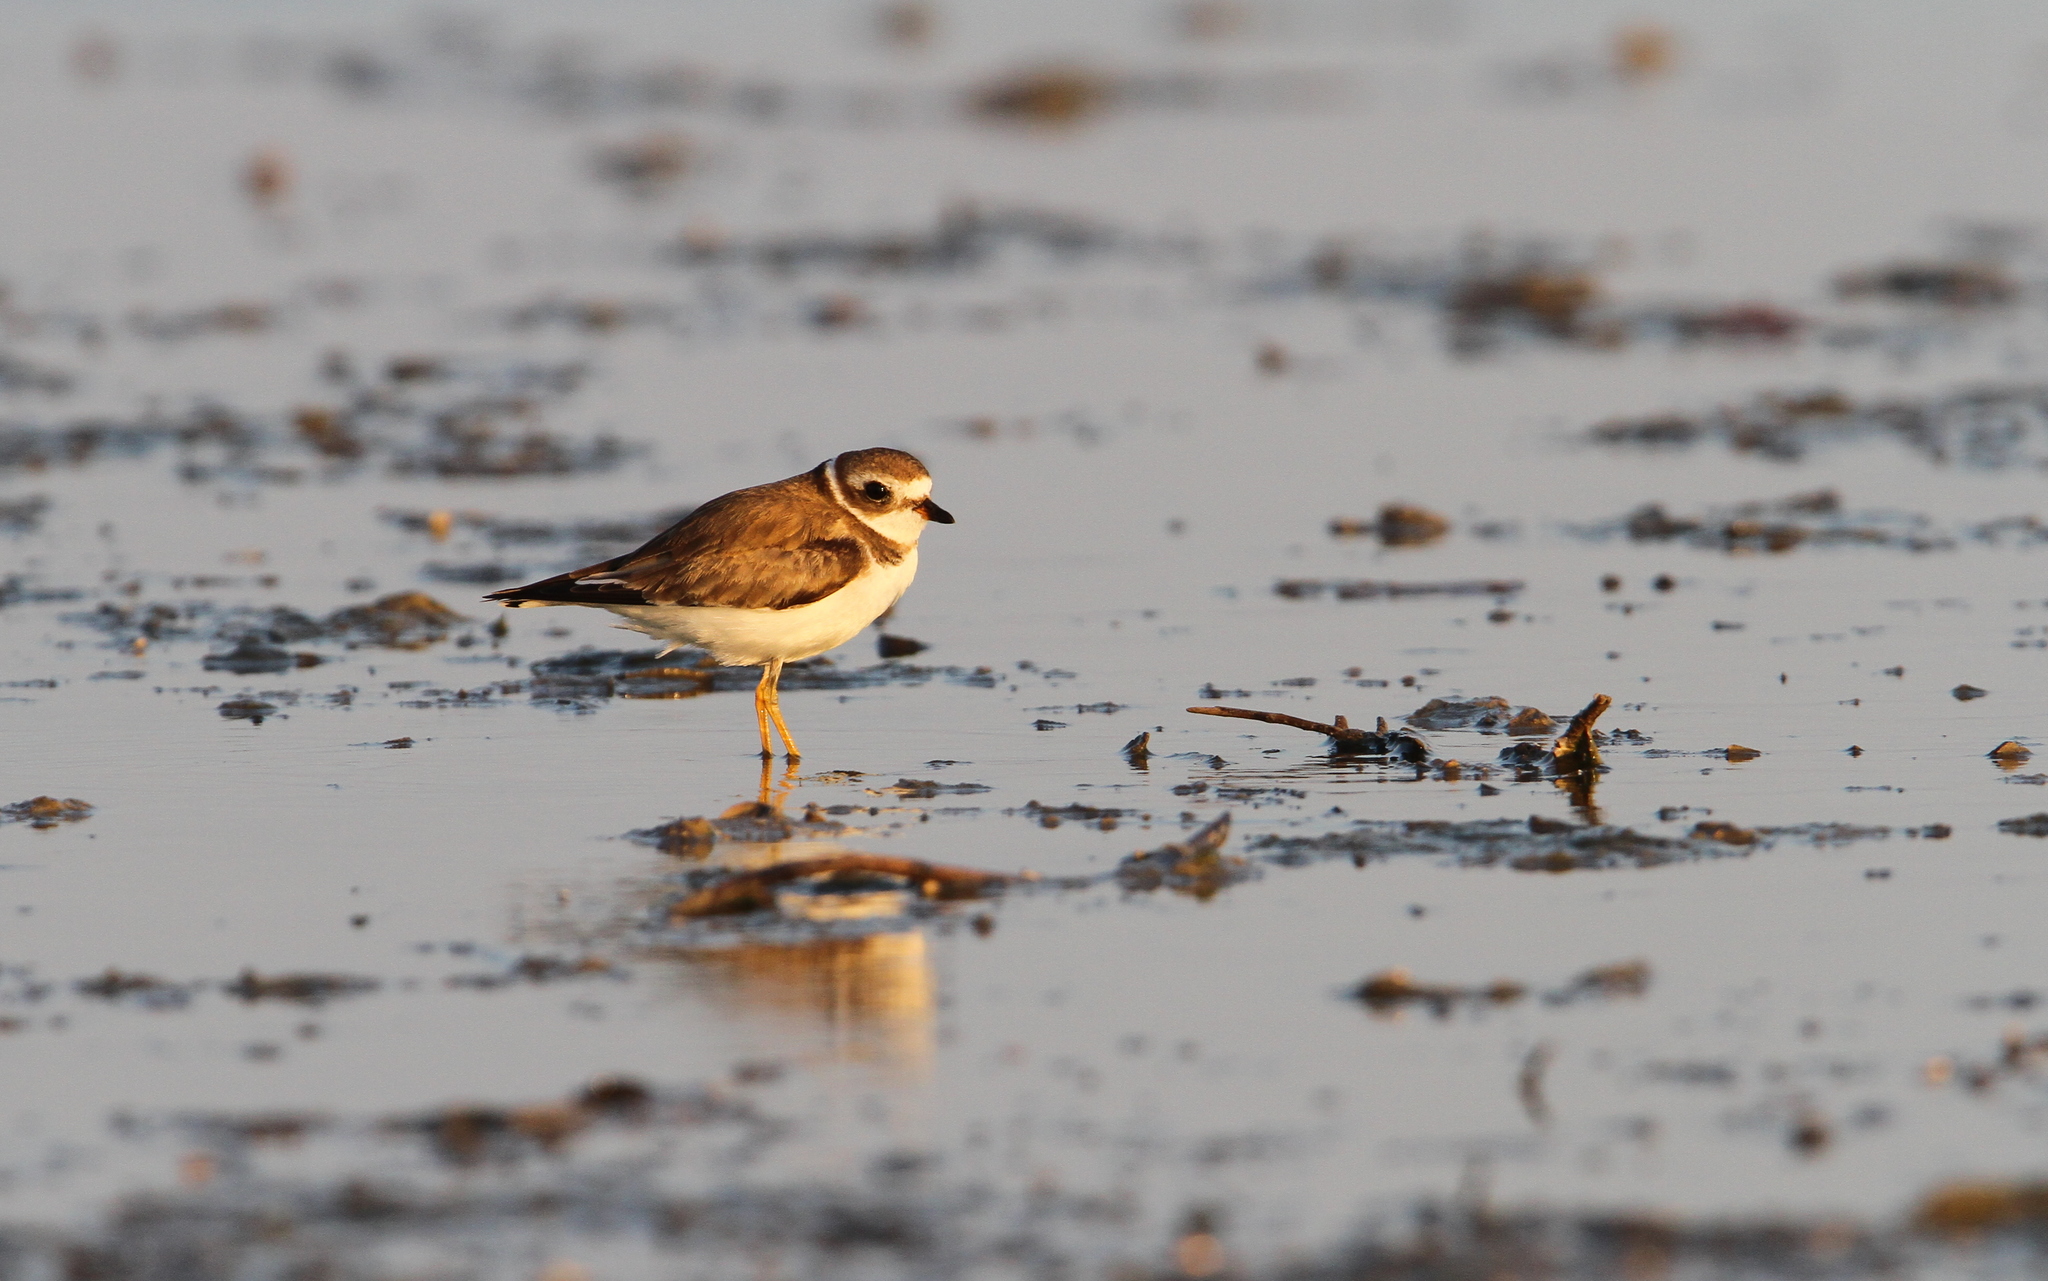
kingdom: Animalia
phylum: Chordata
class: Aves
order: Charadriiformes
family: Charadriidae
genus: Charadrius
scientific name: Charadrius semipalmatus
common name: Semipalmated plover
